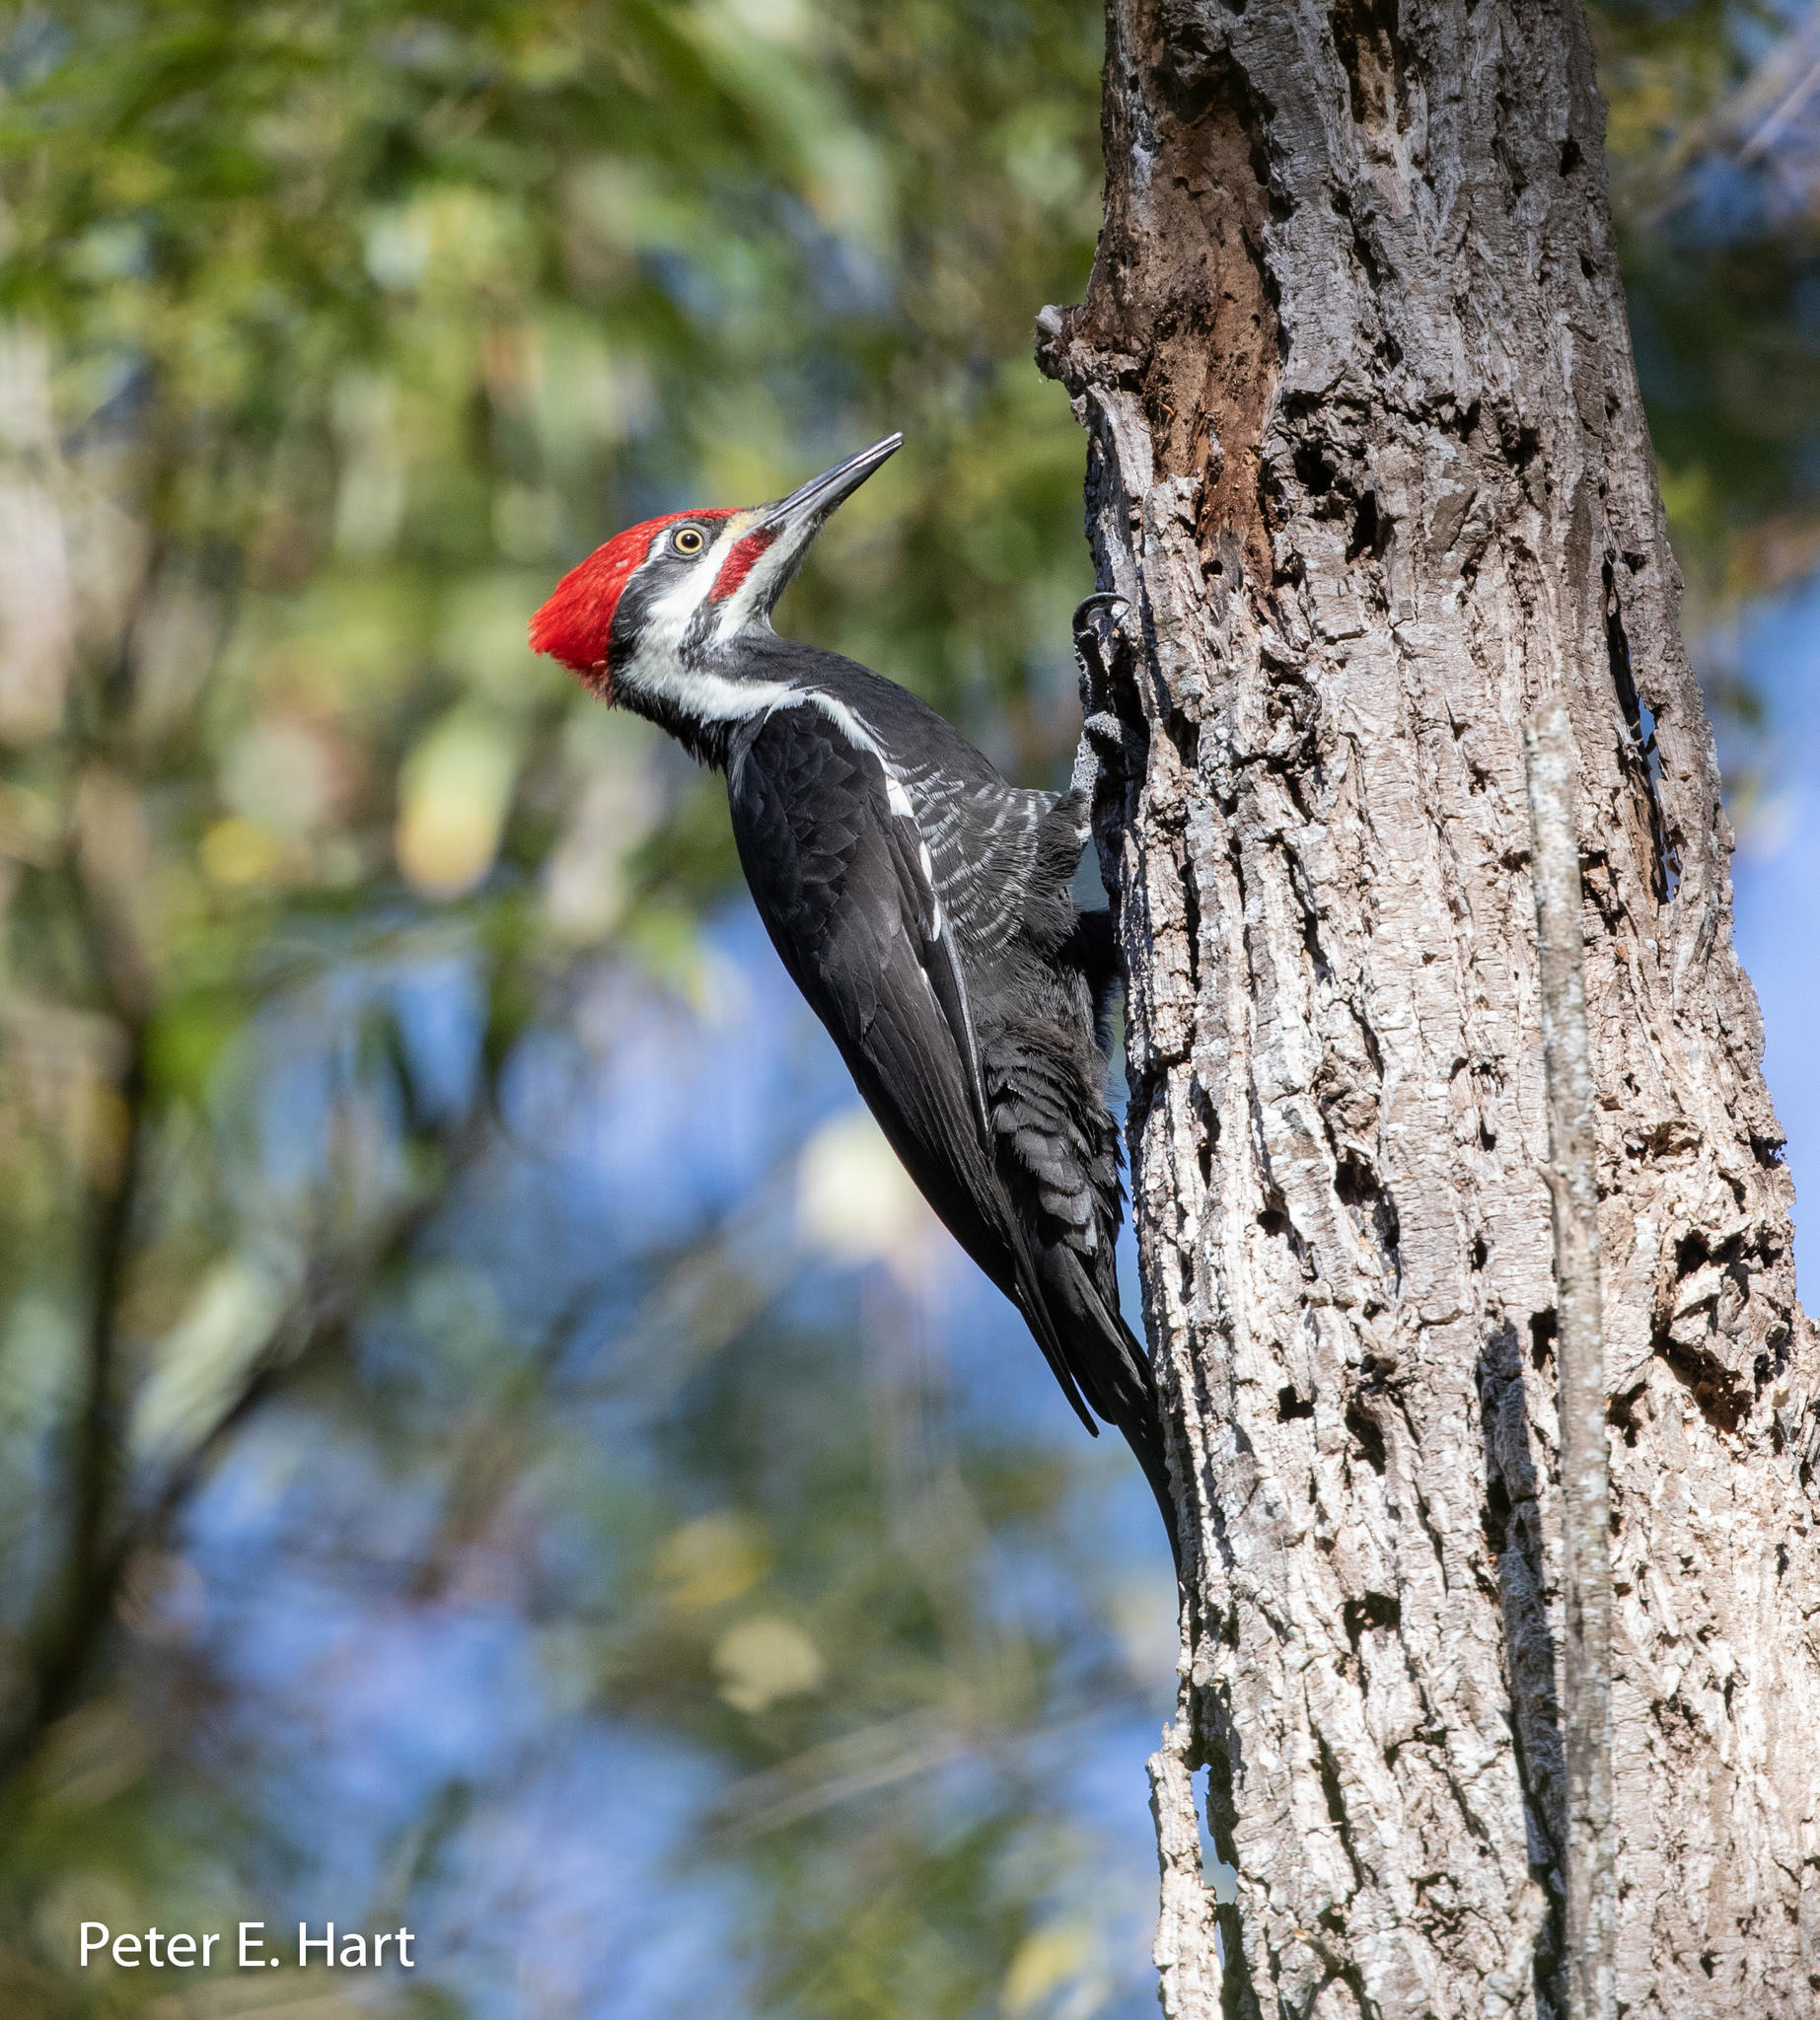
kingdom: Animalia
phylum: Chordata
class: Aves
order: Piciformes
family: Picidae
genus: Dryocopus
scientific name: Dryocopus pileatus
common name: Pileated woodpecker
